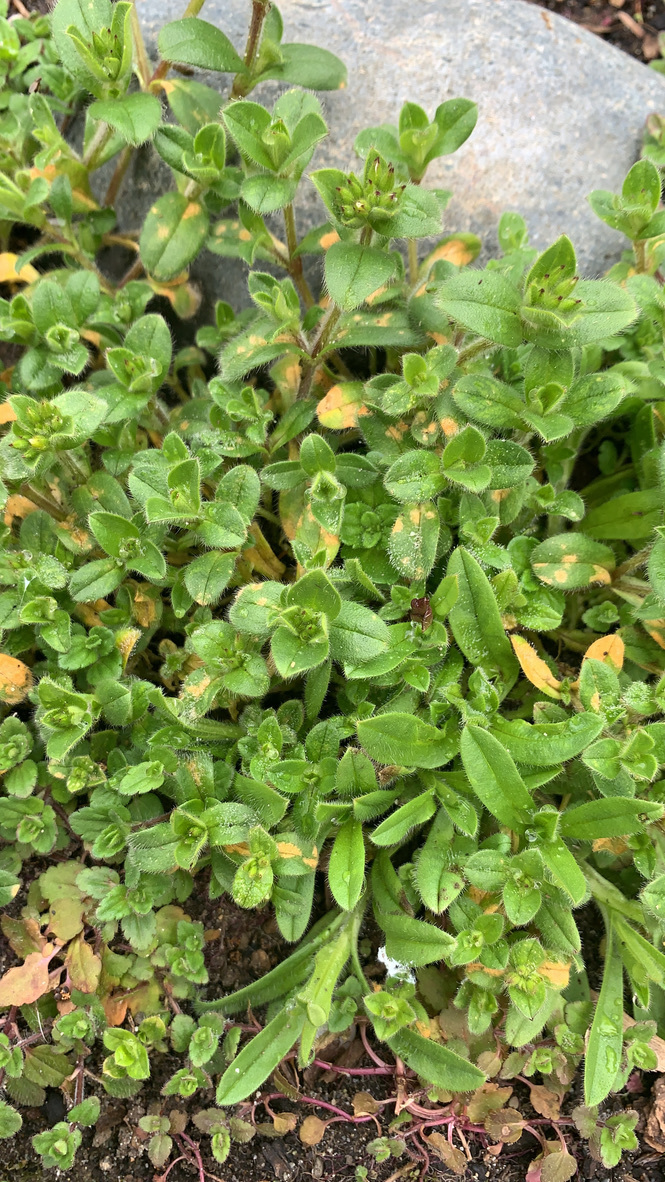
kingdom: Plantae
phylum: Tracheophyta
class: Magnoliopsida
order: Lamiales
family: Plantaginaceae
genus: Veronica
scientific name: Veronica arvensis
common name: Corn speedwell
